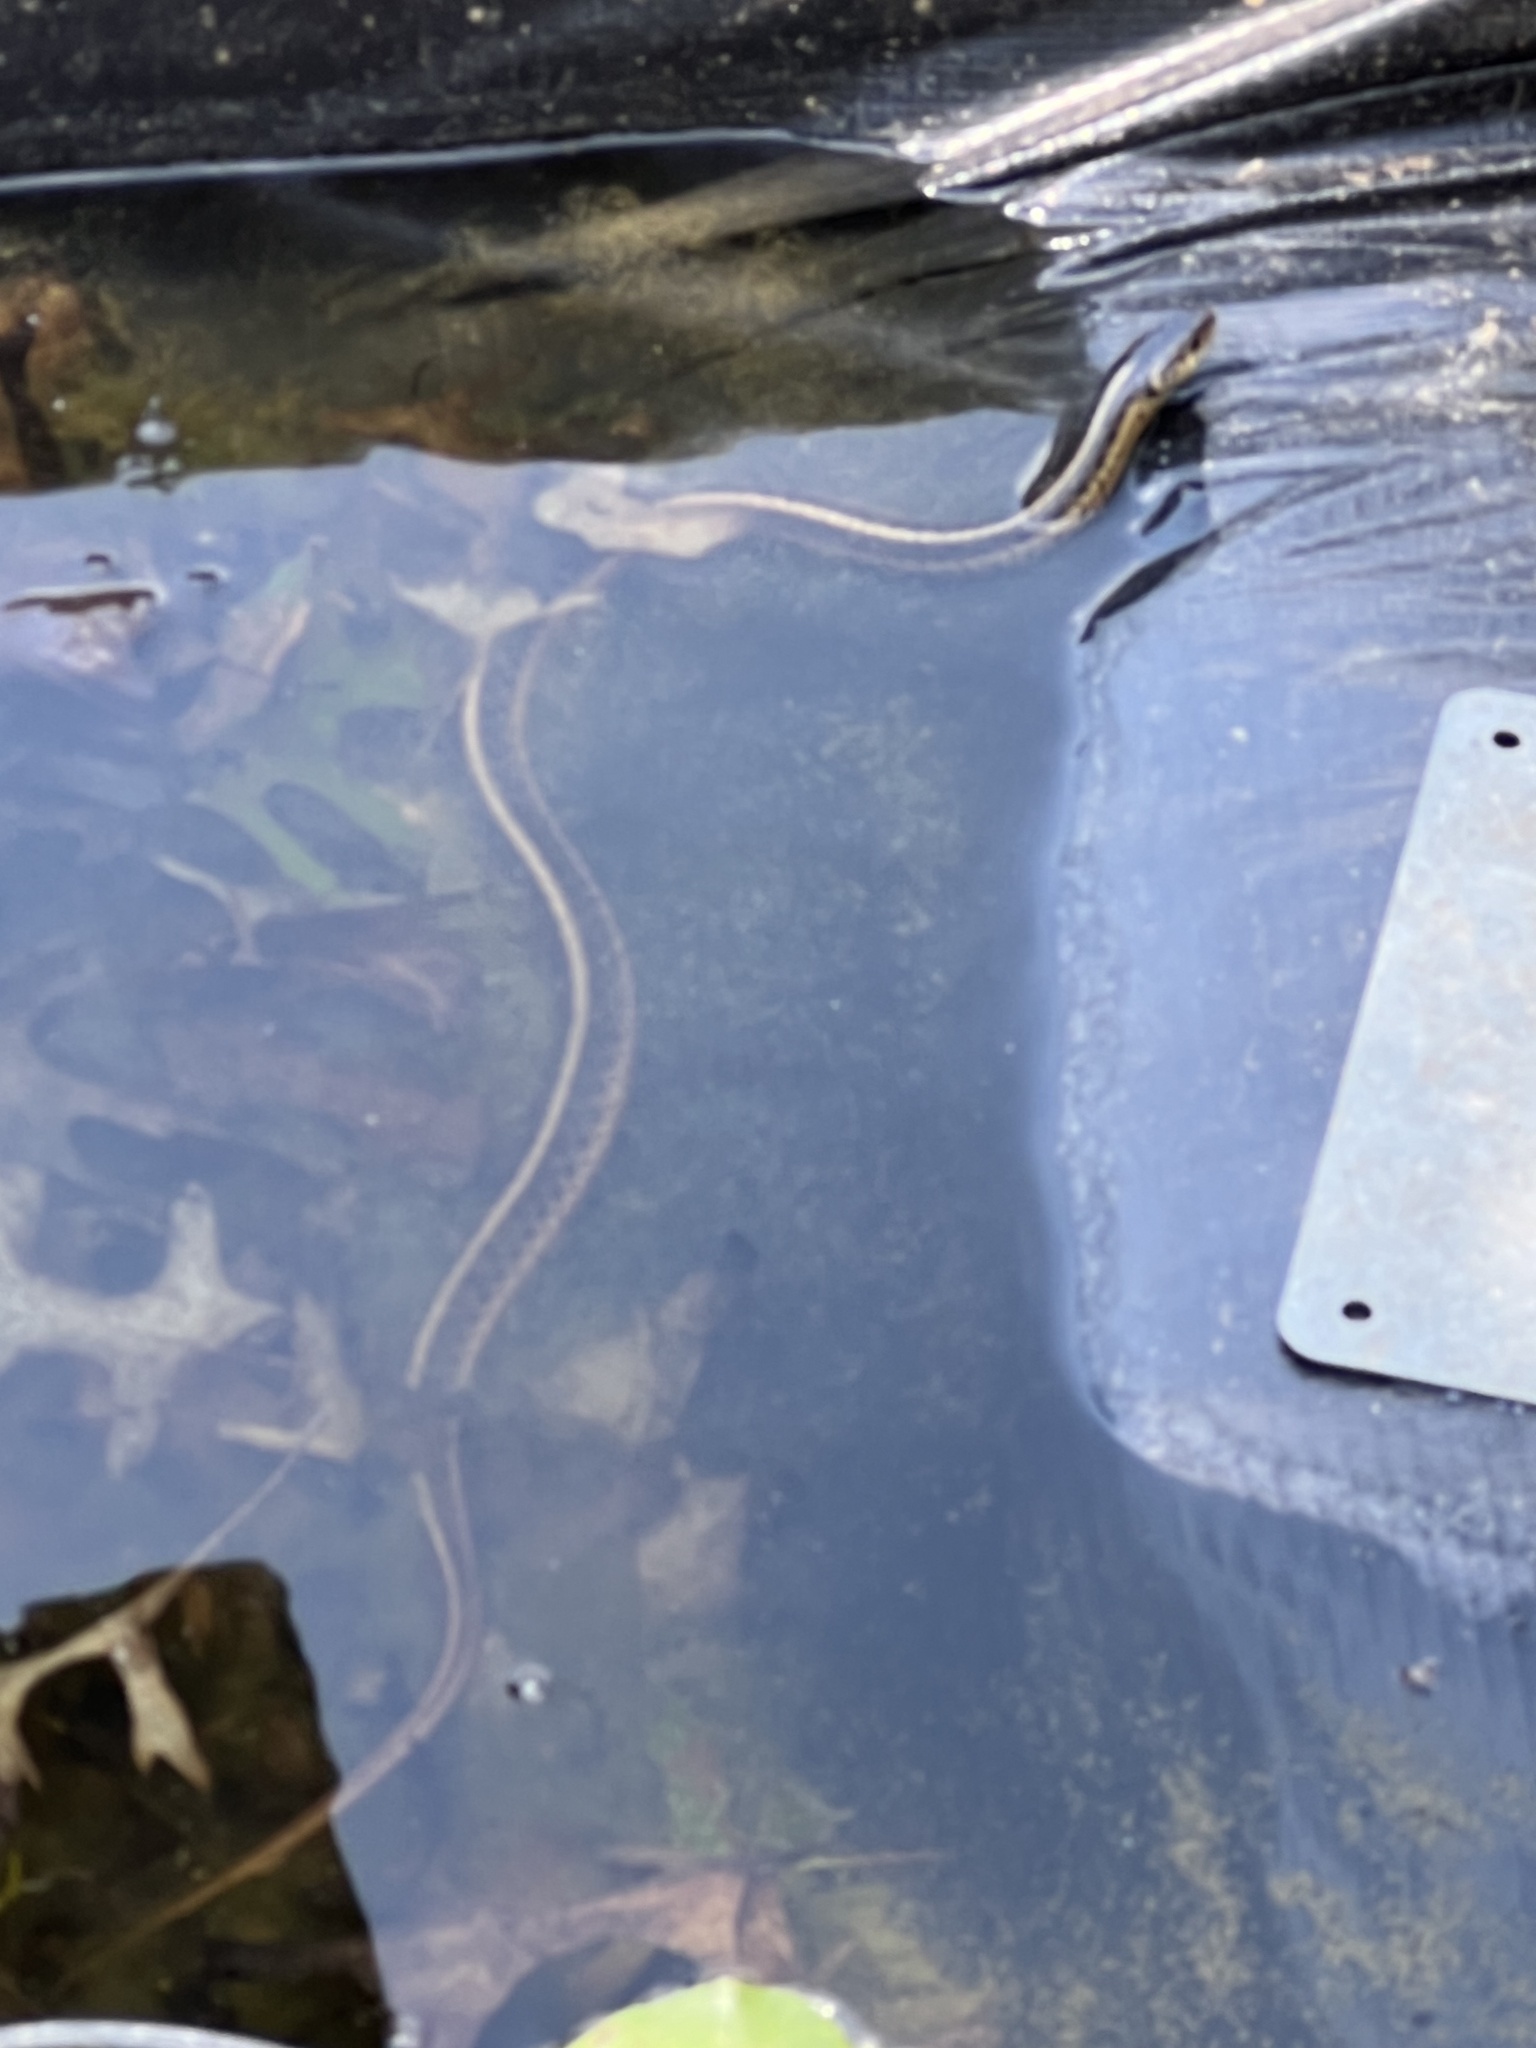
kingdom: Animalia
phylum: Chordata
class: Squamata
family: Colubridae
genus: Thamnophis
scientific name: Thamnophis sirtalis
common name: Common garter snake
